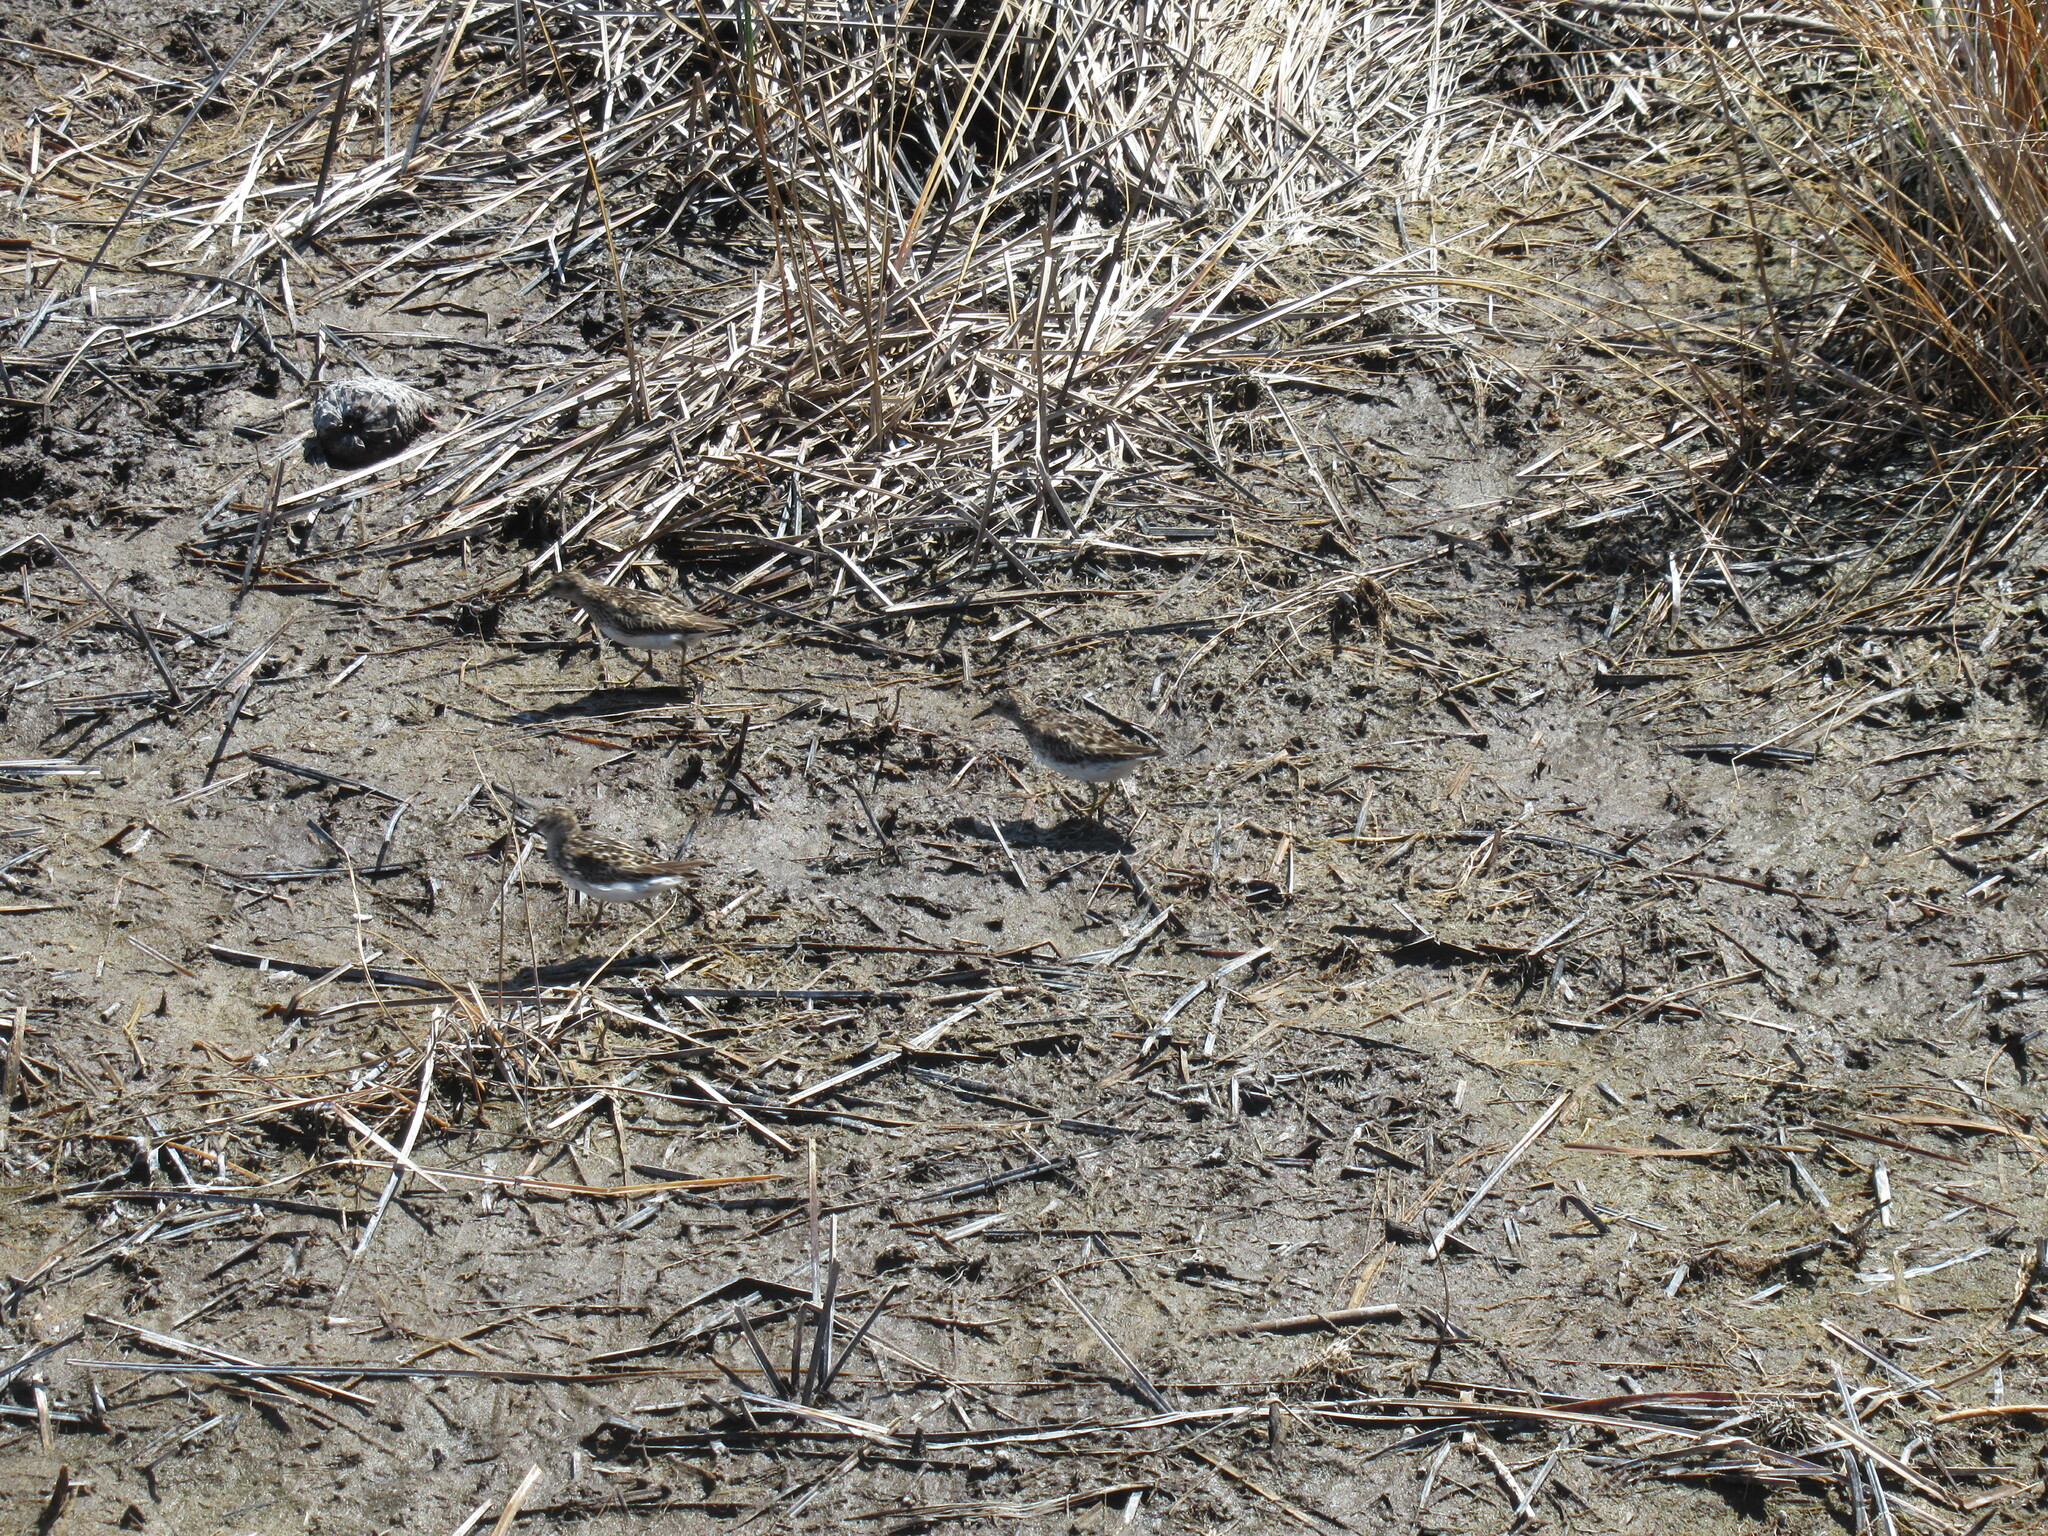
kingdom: Animalia
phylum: Chordata
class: Aves
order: Charadriiformes
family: Scolopacidae
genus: Calidris
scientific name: Calidris minutilla
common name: Least sandpiper
